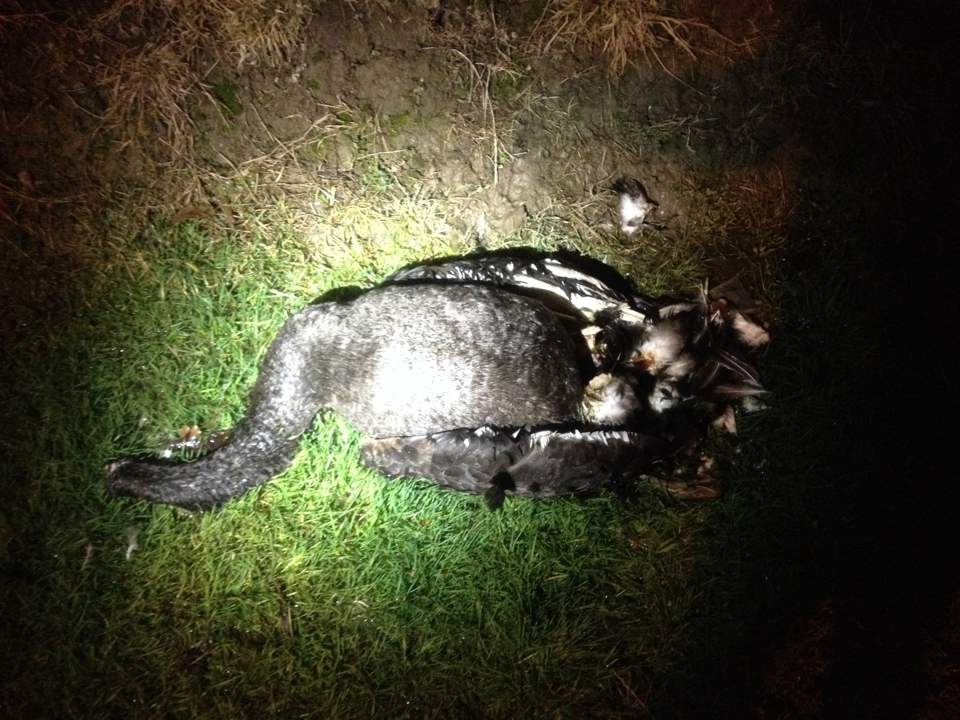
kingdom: Animalia
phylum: Chordata
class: Aves
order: Anseriformes
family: Anatidae
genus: Cygnus
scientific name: Cygnus atratus
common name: Black swan
